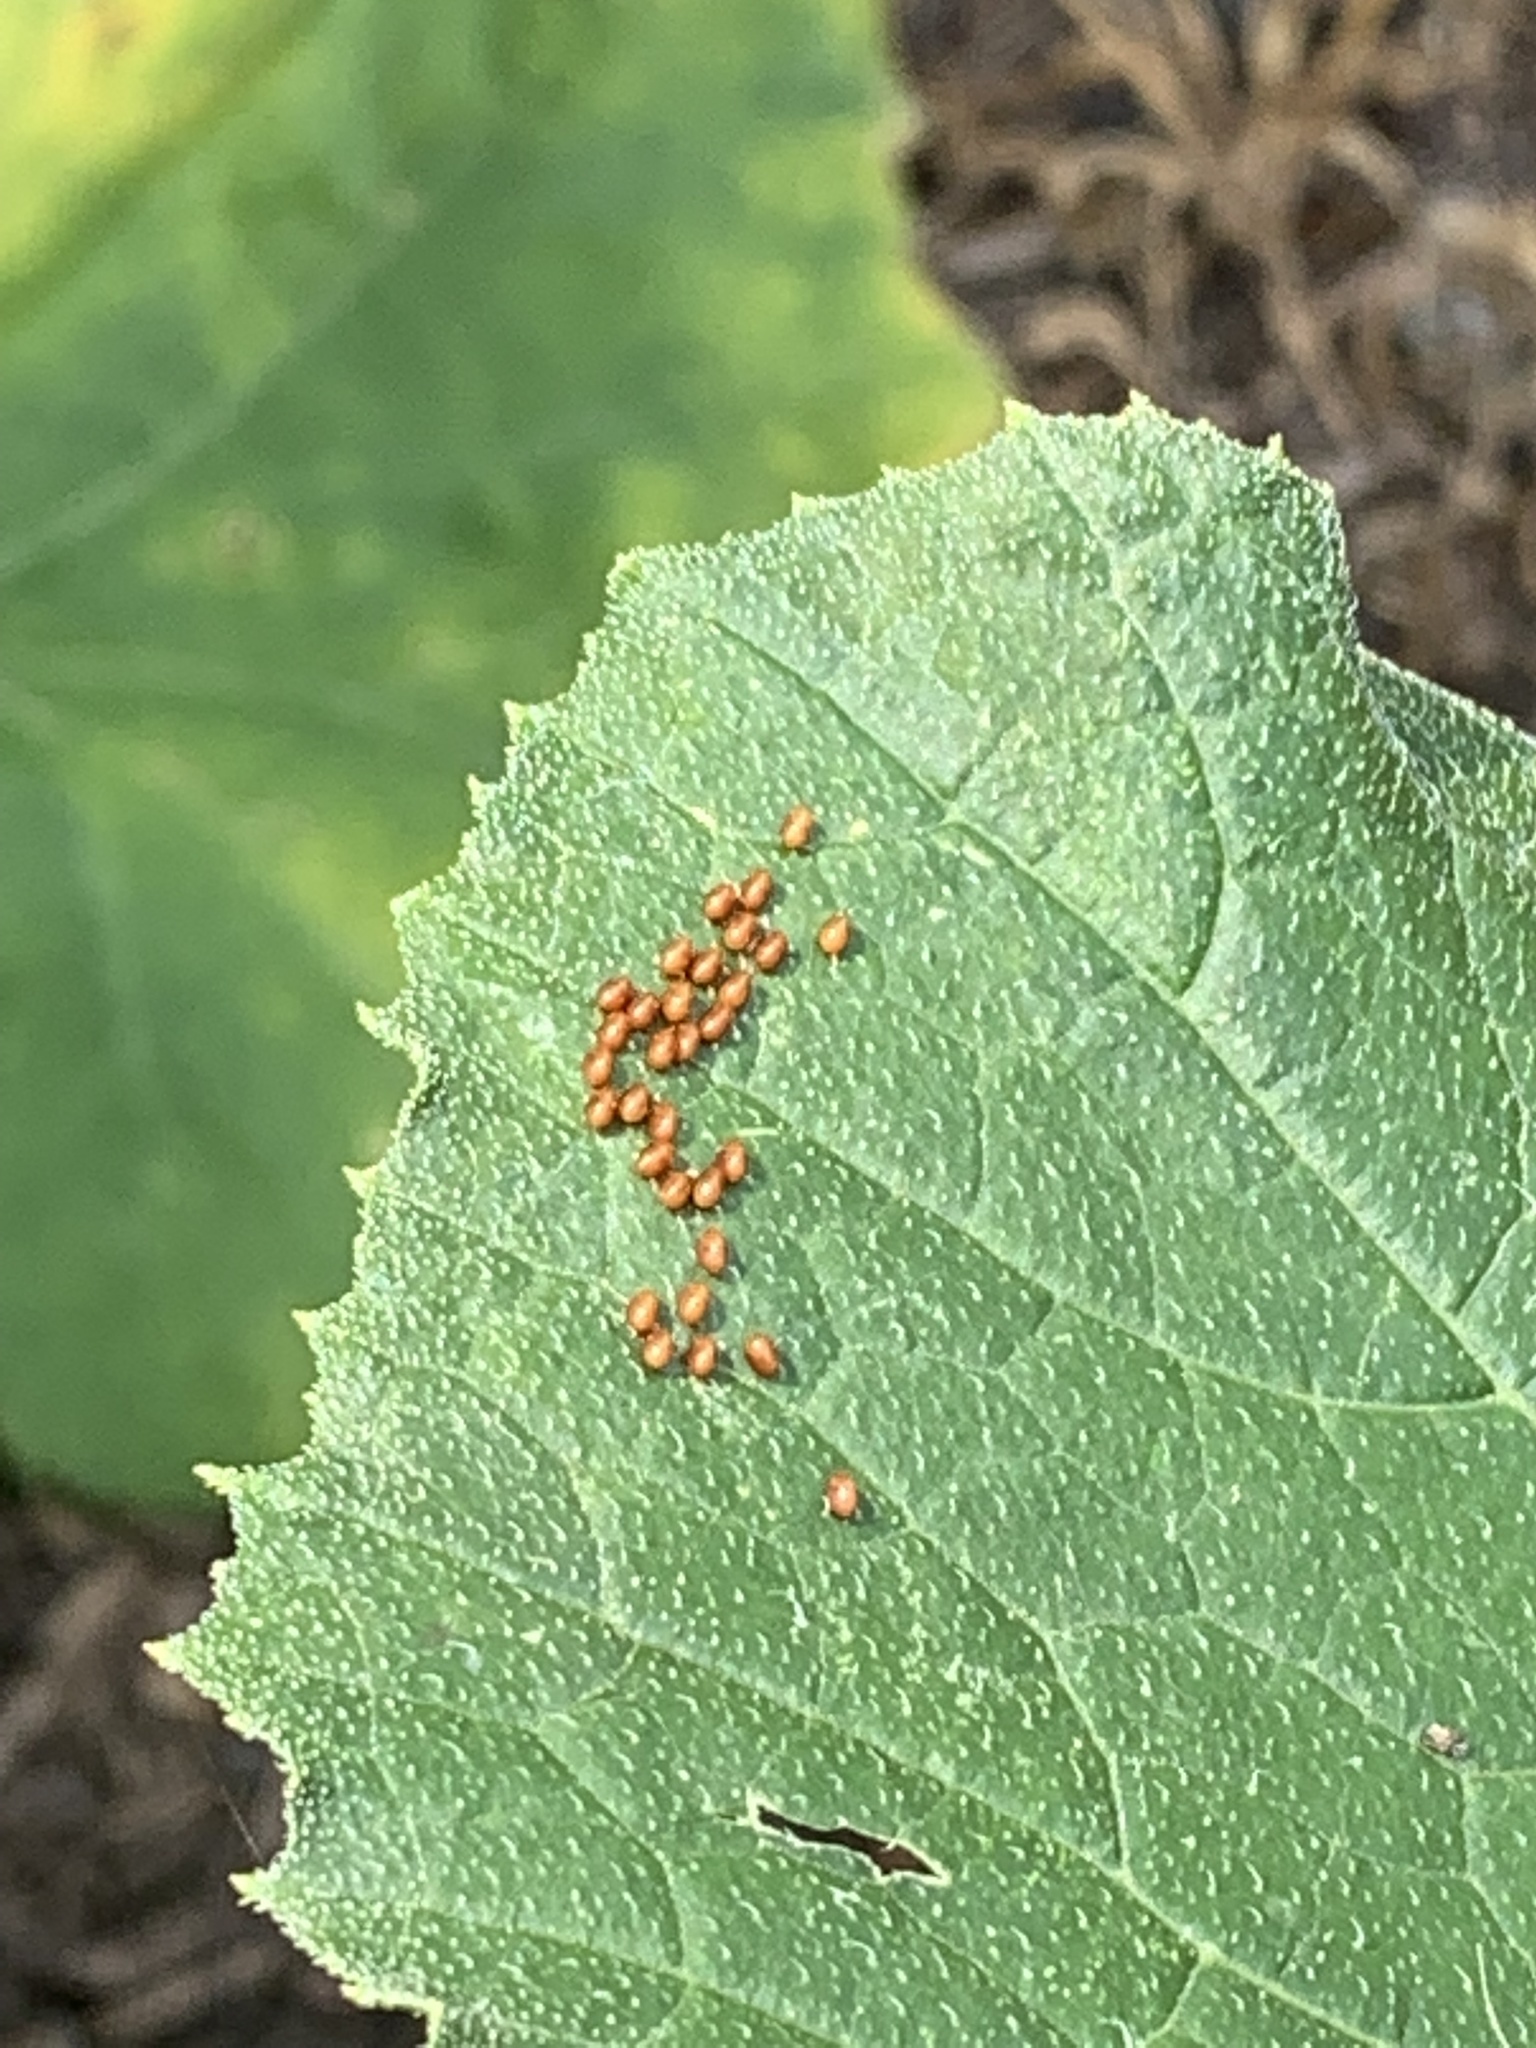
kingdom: Animalia
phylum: Arthropoda
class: Insecta
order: Hemiptera
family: Coreidae
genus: Anasa
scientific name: Anasa tristis
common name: Squash bug
